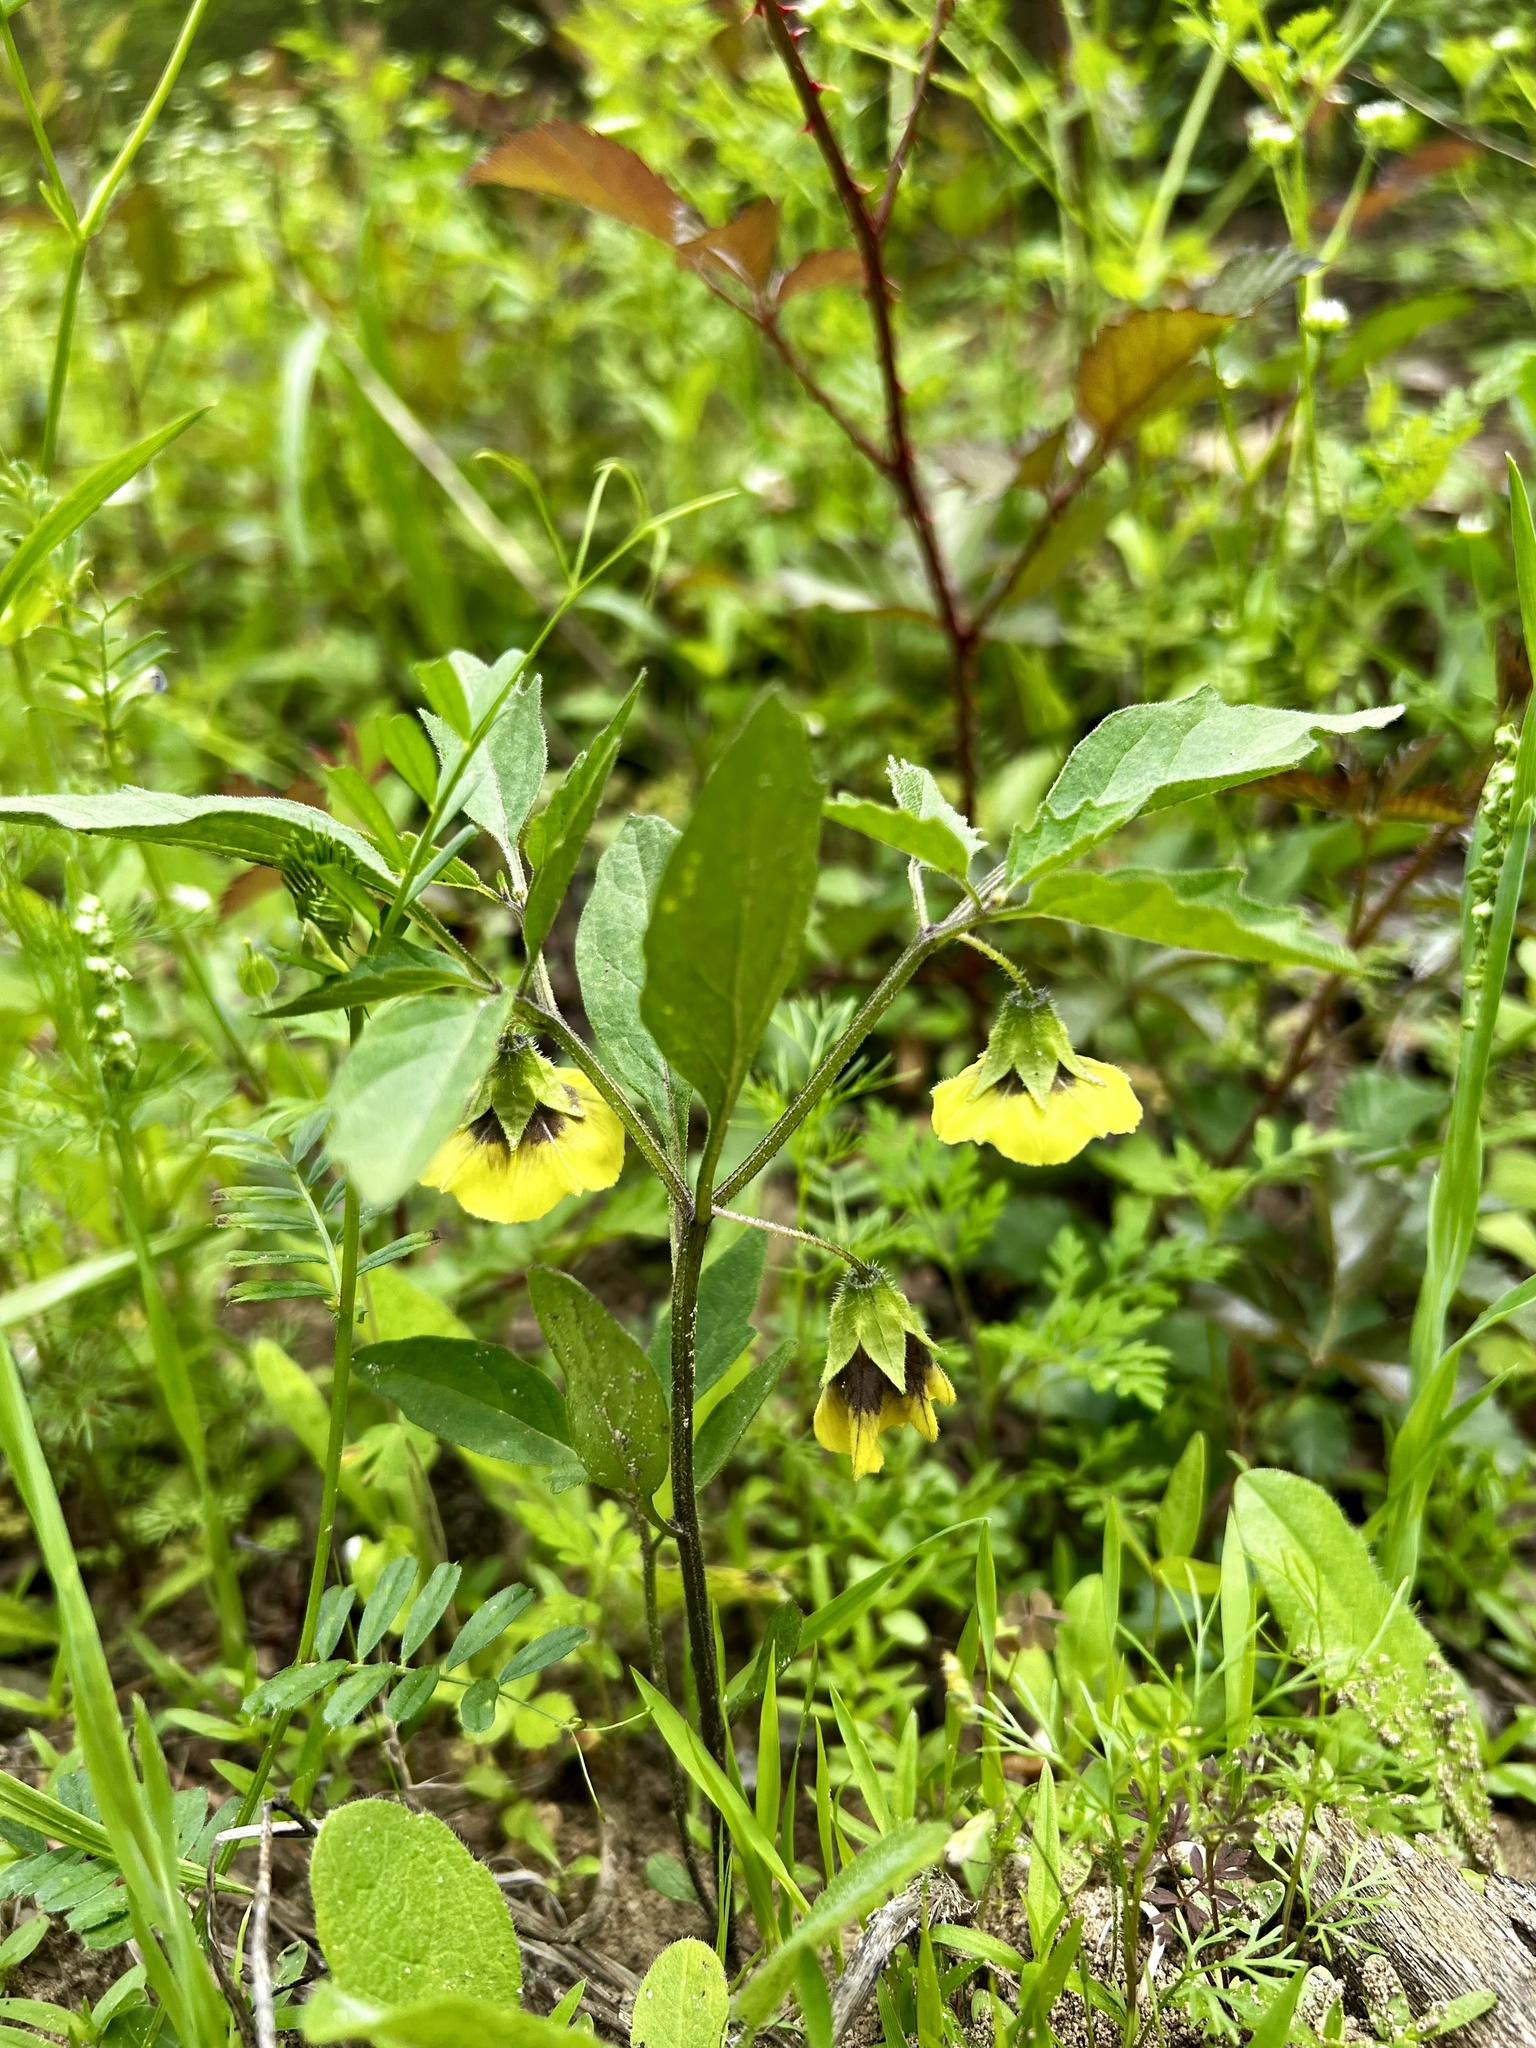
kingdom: Plantae
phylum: Tracheophyta
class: Magnoliopsida
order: Solanales
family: Solanaceae
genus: Physalis
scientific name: Physalis virginiana
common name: Virginia ground-cherry
